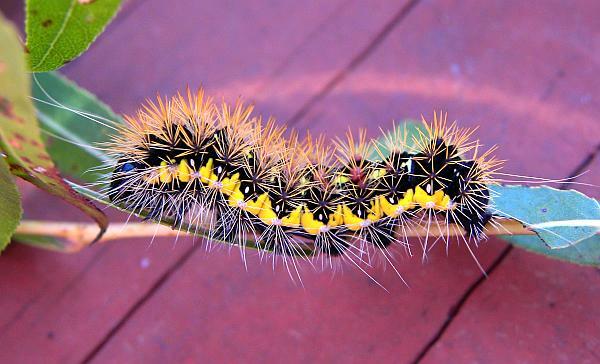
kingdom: Animalia
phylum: Arthropoda
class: Insecta
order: Lepidoptera
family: Noctuidae
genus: Acronicta
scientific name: Acronicta oblinita
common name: Smeared dagger
